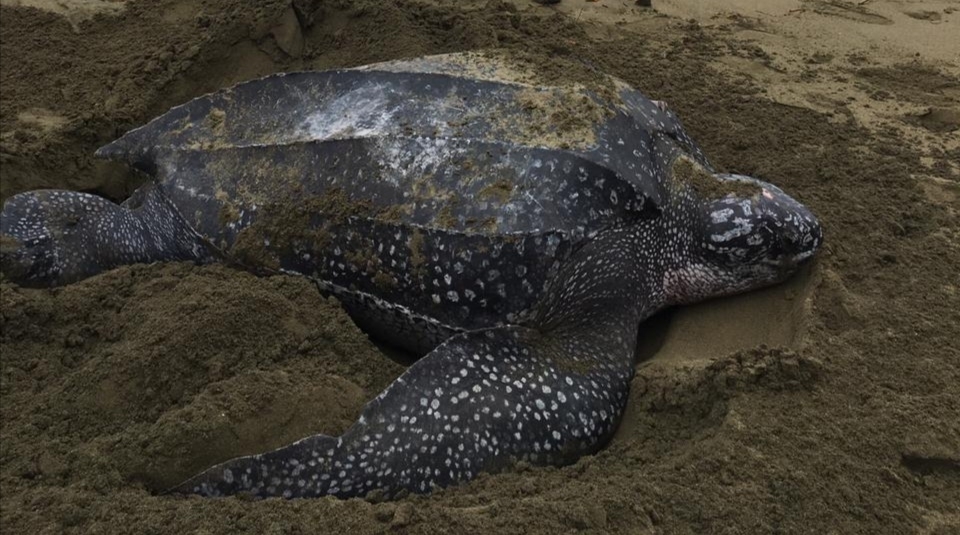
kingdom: Animalia
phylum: Chordata
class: Testudines
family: Dermochelyidae
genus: Dermochelys
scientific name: Dermochelys coriacea
